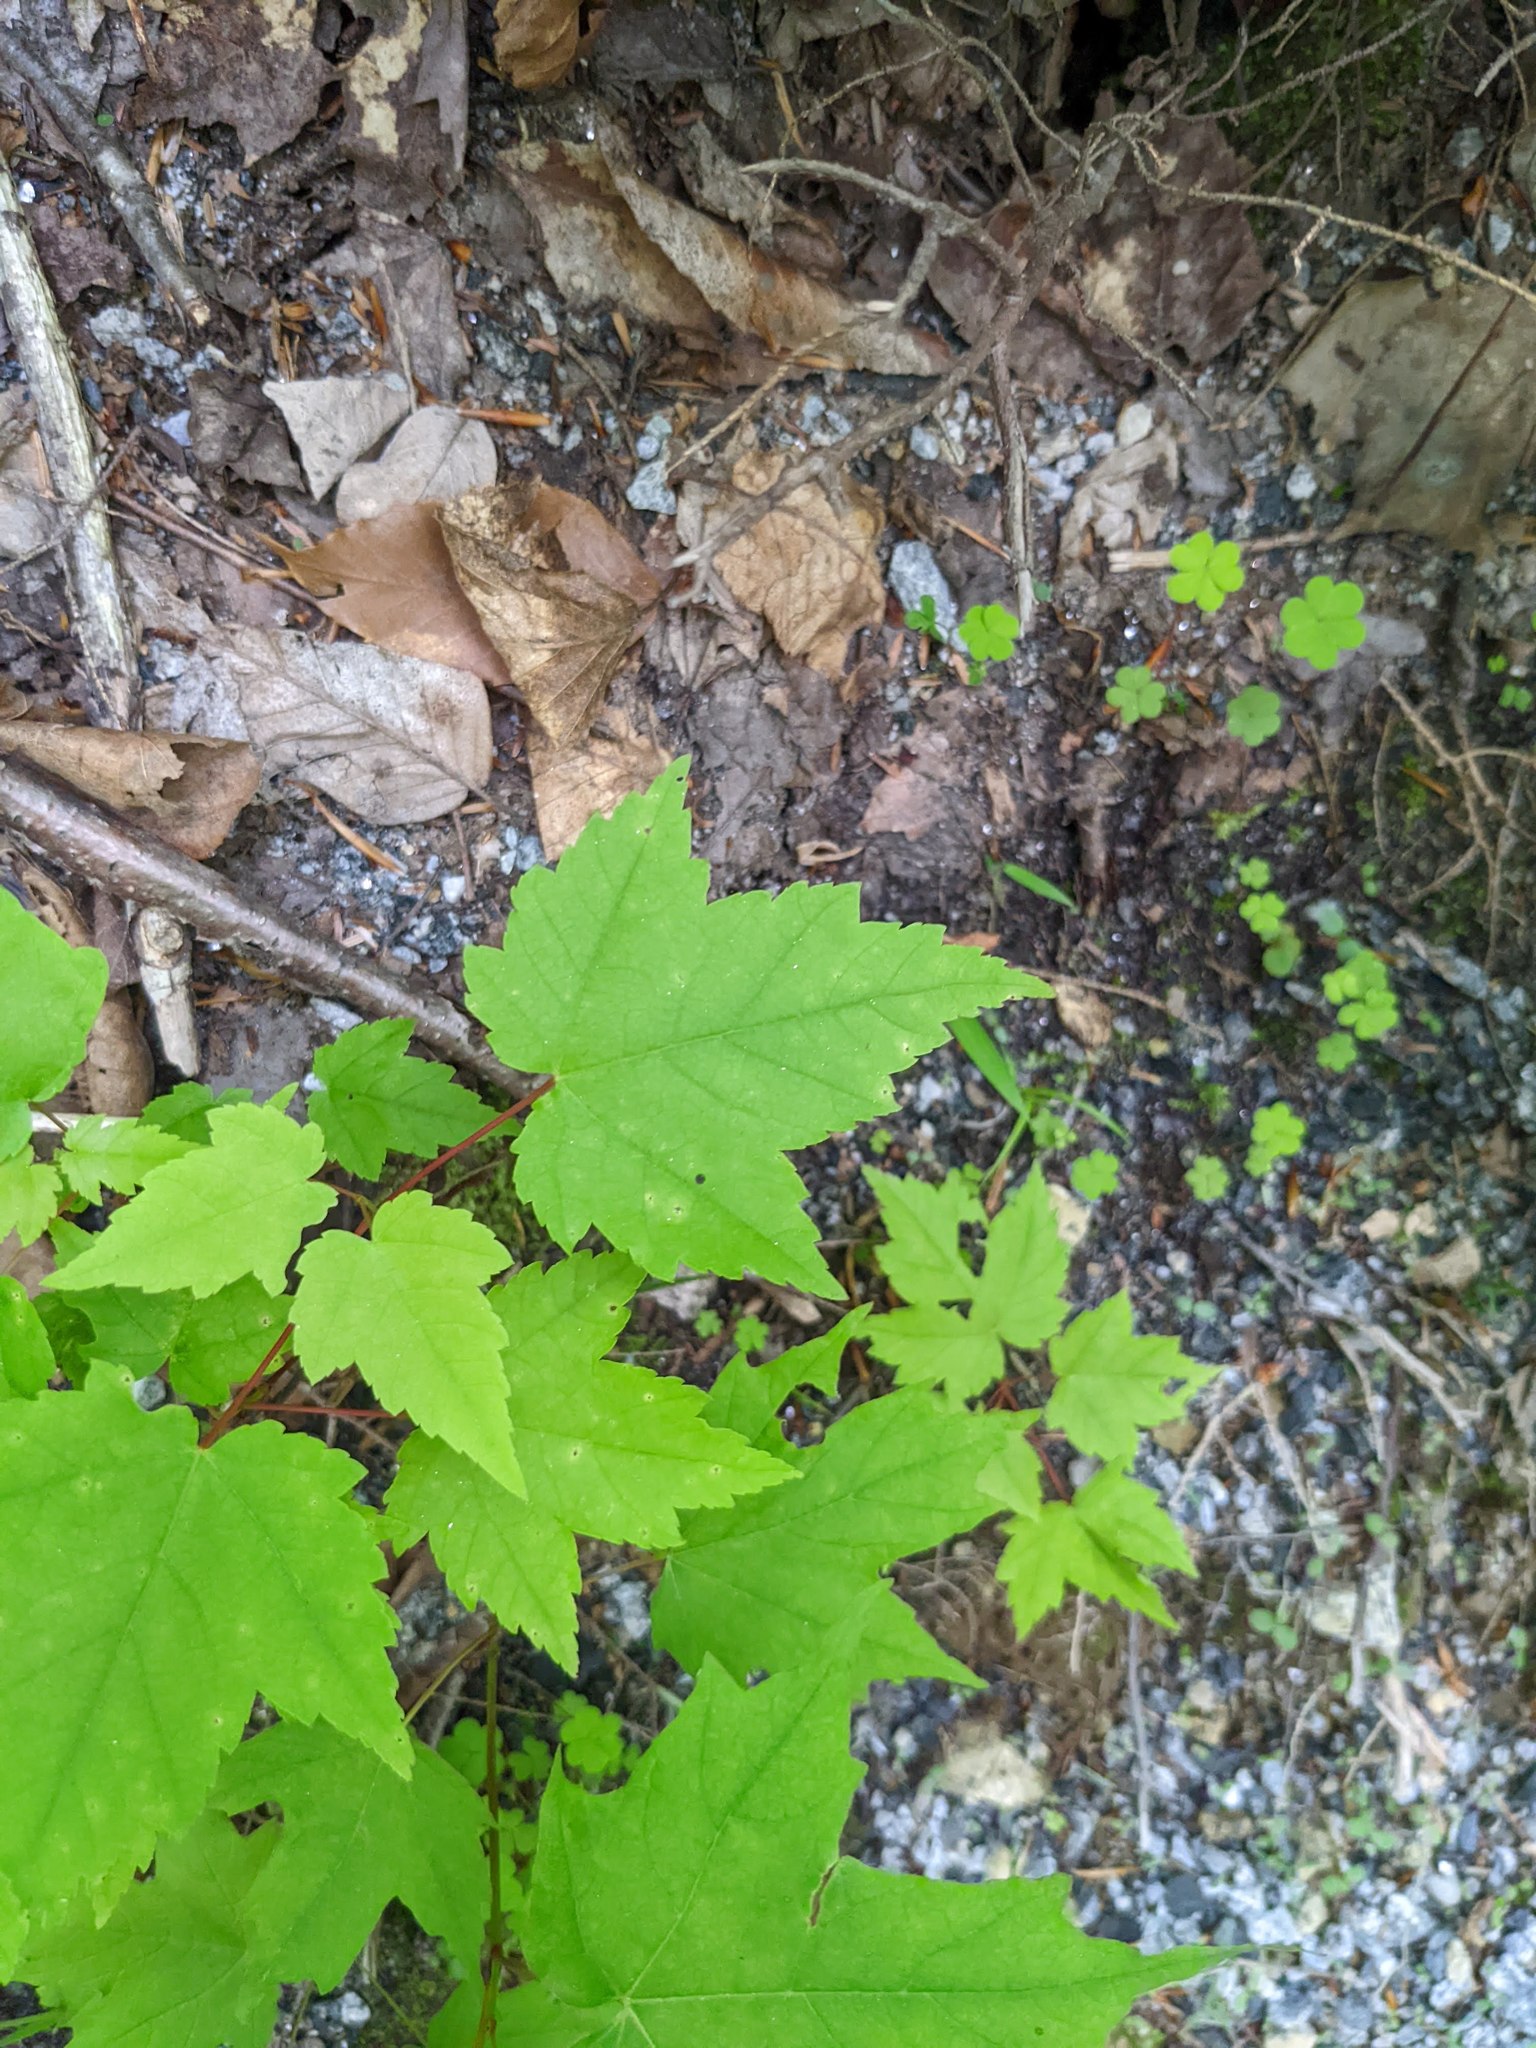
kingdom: Plantae
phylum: Tracheophyta
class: Magnoliopsida
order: Sapindales
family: Sapindaceae
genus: Acer
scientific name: Acer rubrum
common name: Red maple
